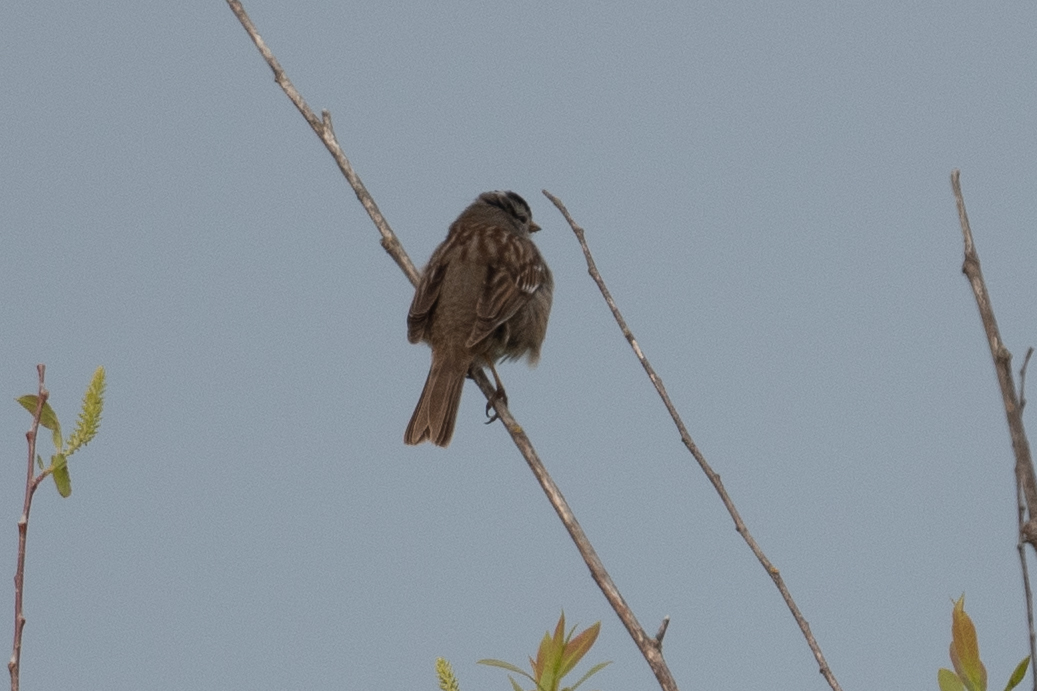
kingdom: Animalia
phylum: Chordata
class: Aves
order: Passeriformes
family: Passerellidae
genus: Zonotrichia
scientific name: Zonotrichia leucophrys
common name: White-crowned sparrow
